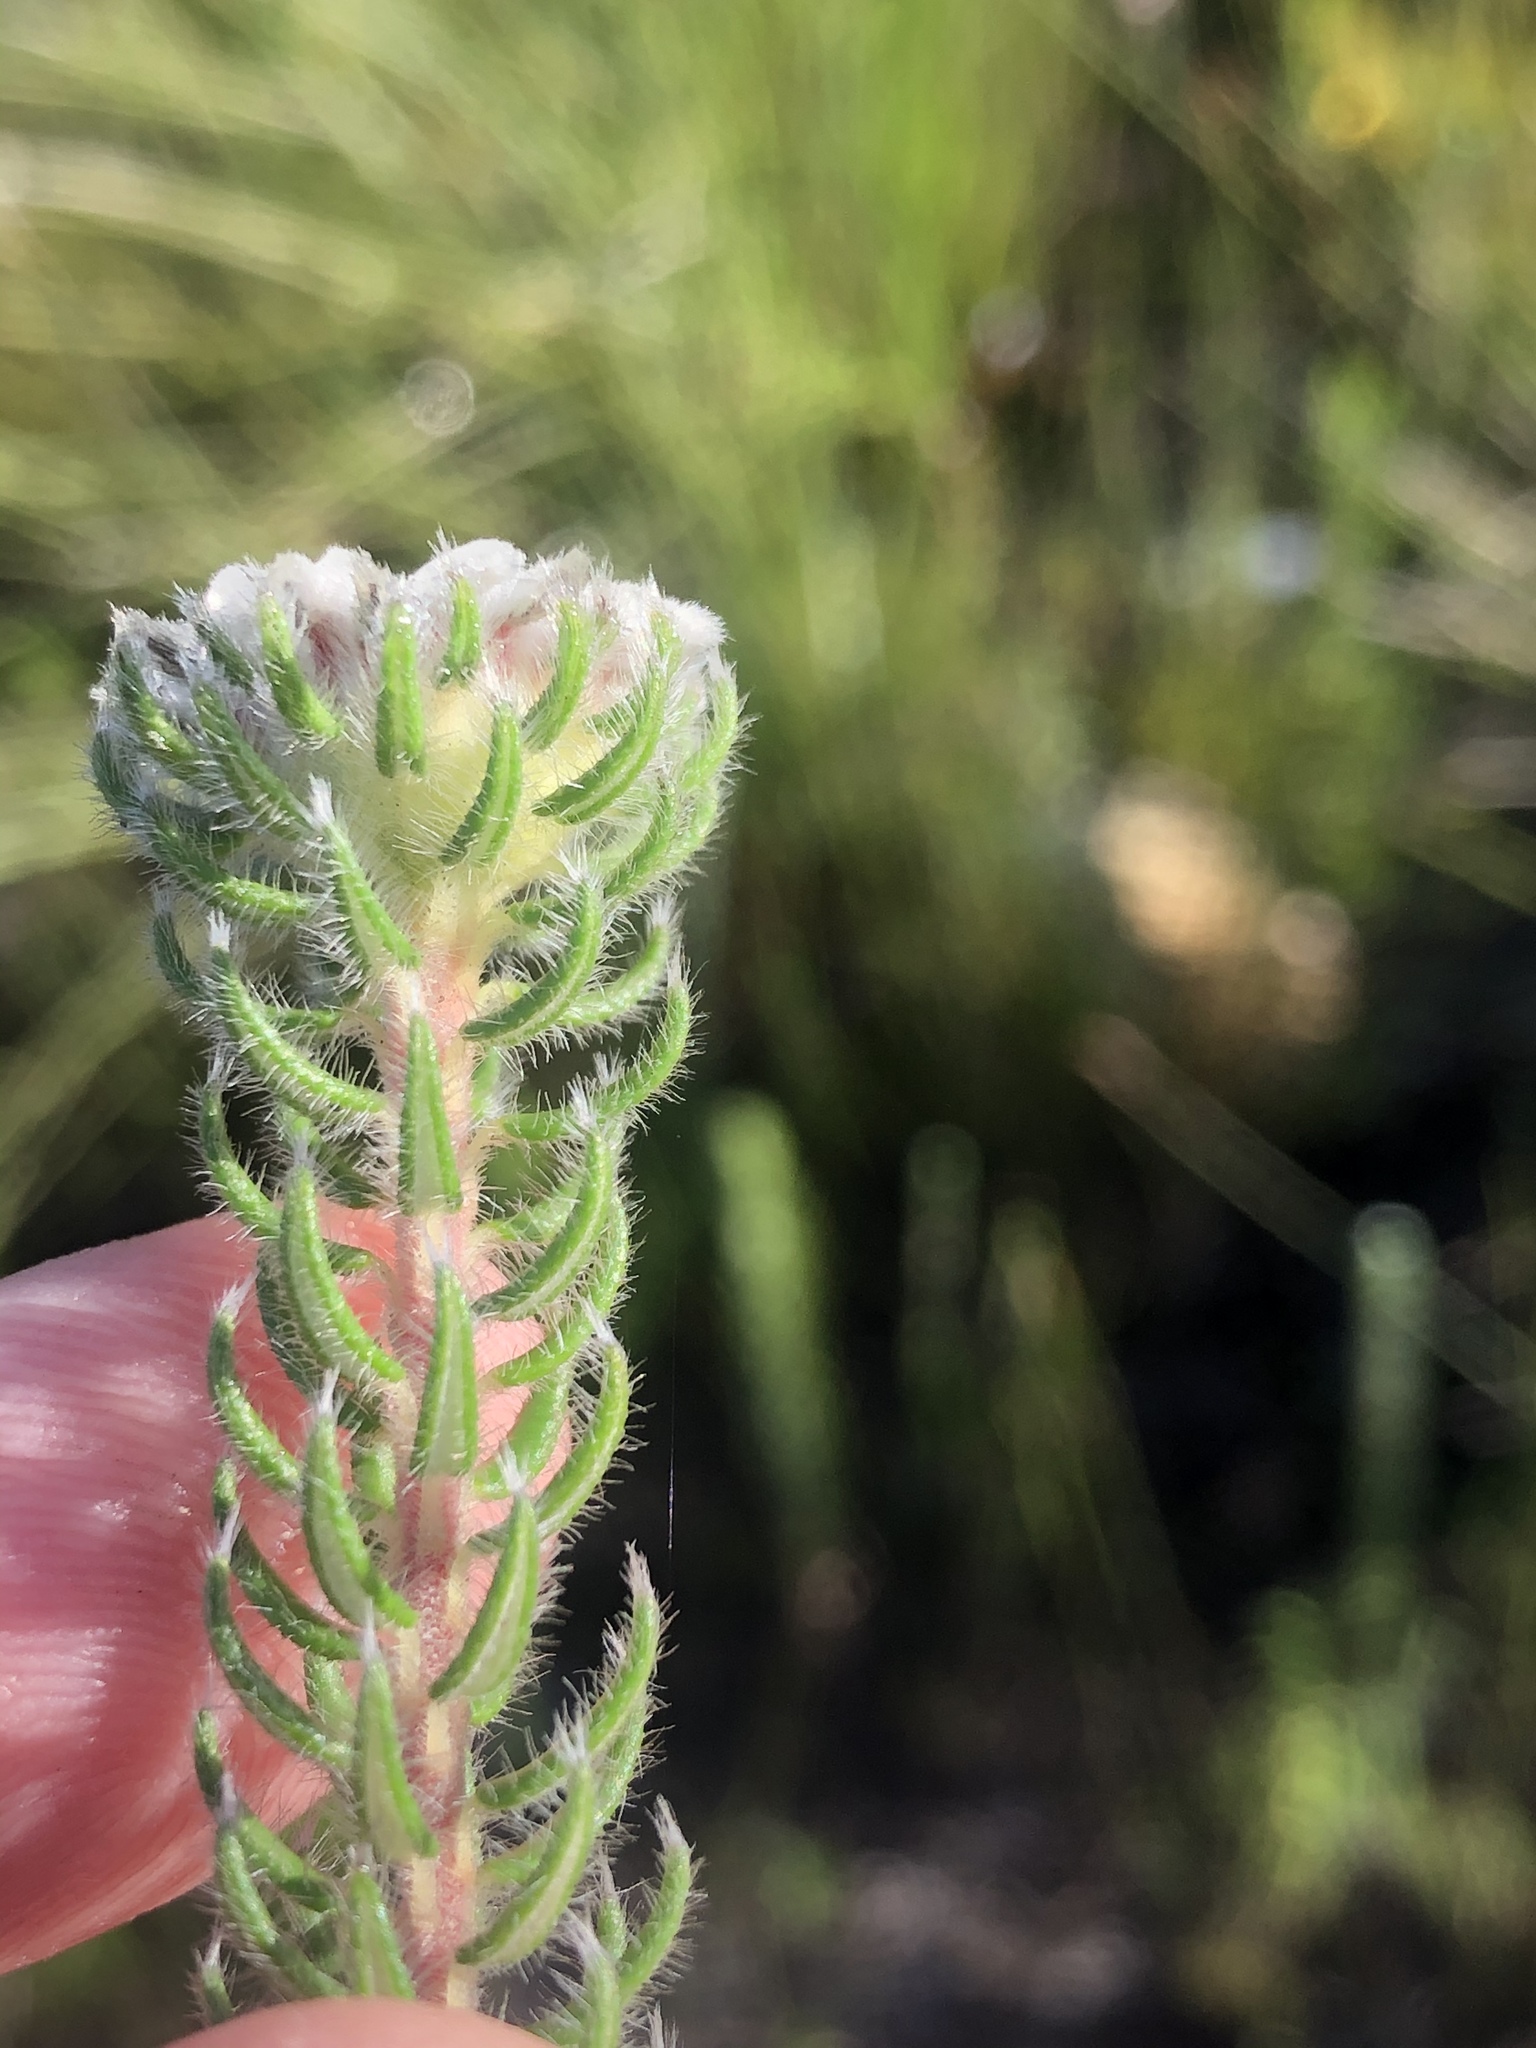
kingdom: Plantae
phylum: Tracheophyta
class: Magnoliopsida
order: Rosales
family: Rhamnaceae
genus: Phylica
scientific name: Phylica curvifolia
